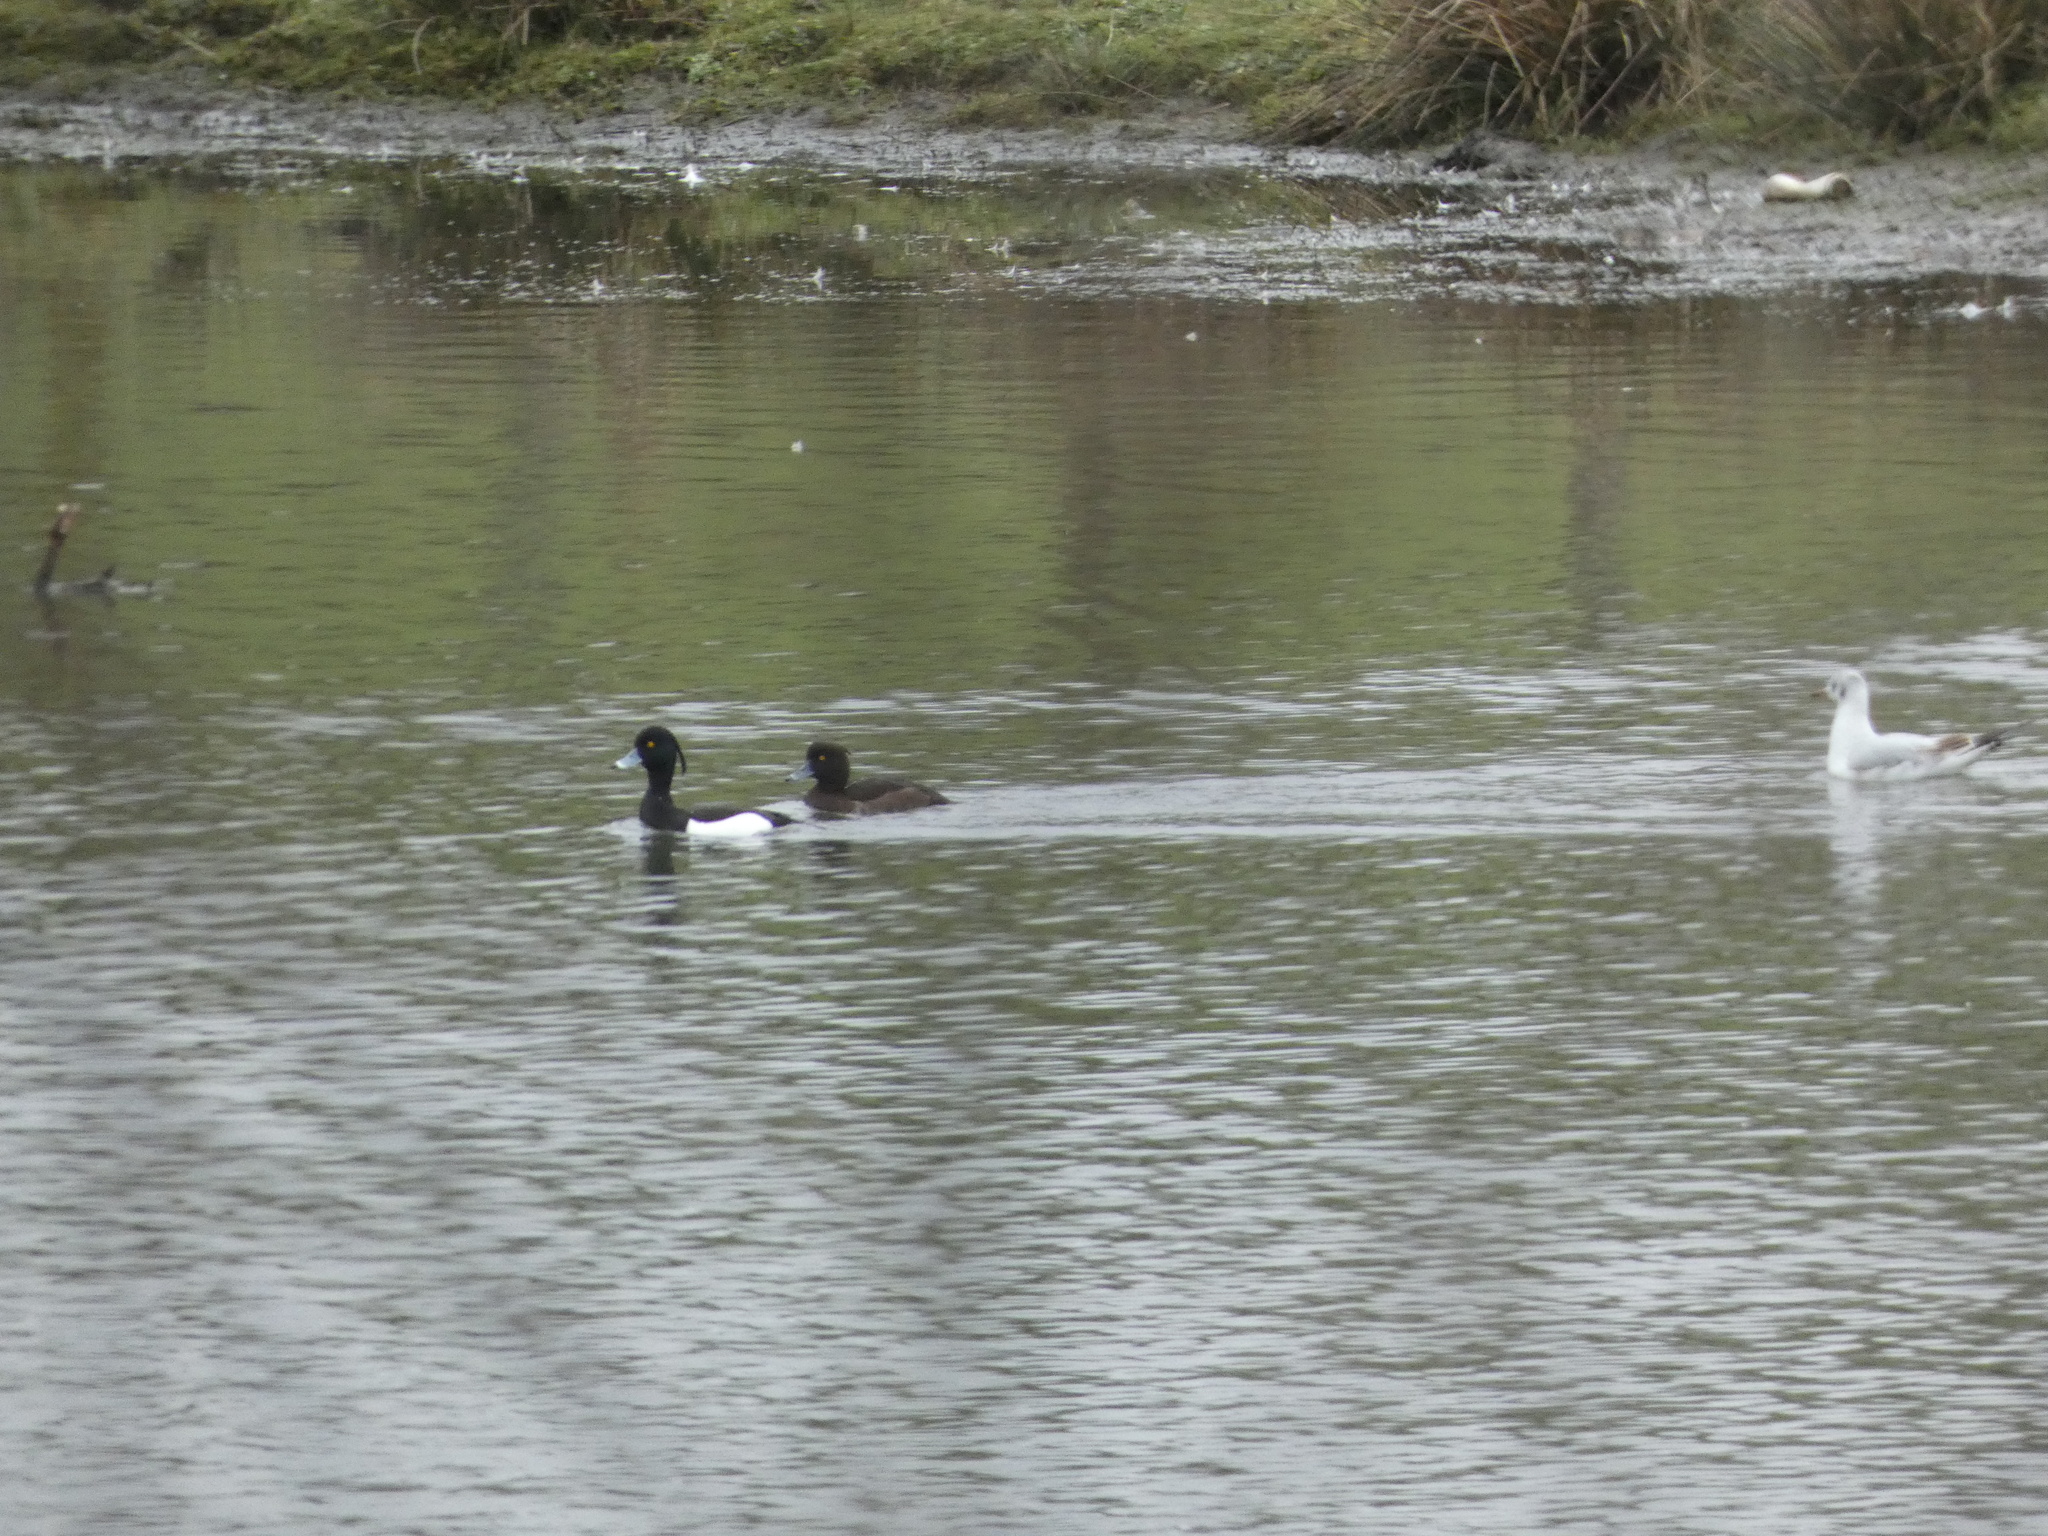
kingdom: Animalia
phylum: Chordata
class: Aves
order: Anseriformes
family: Anatidae
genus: Aythya
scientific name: Aythya fuligula
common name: Tufted duck
